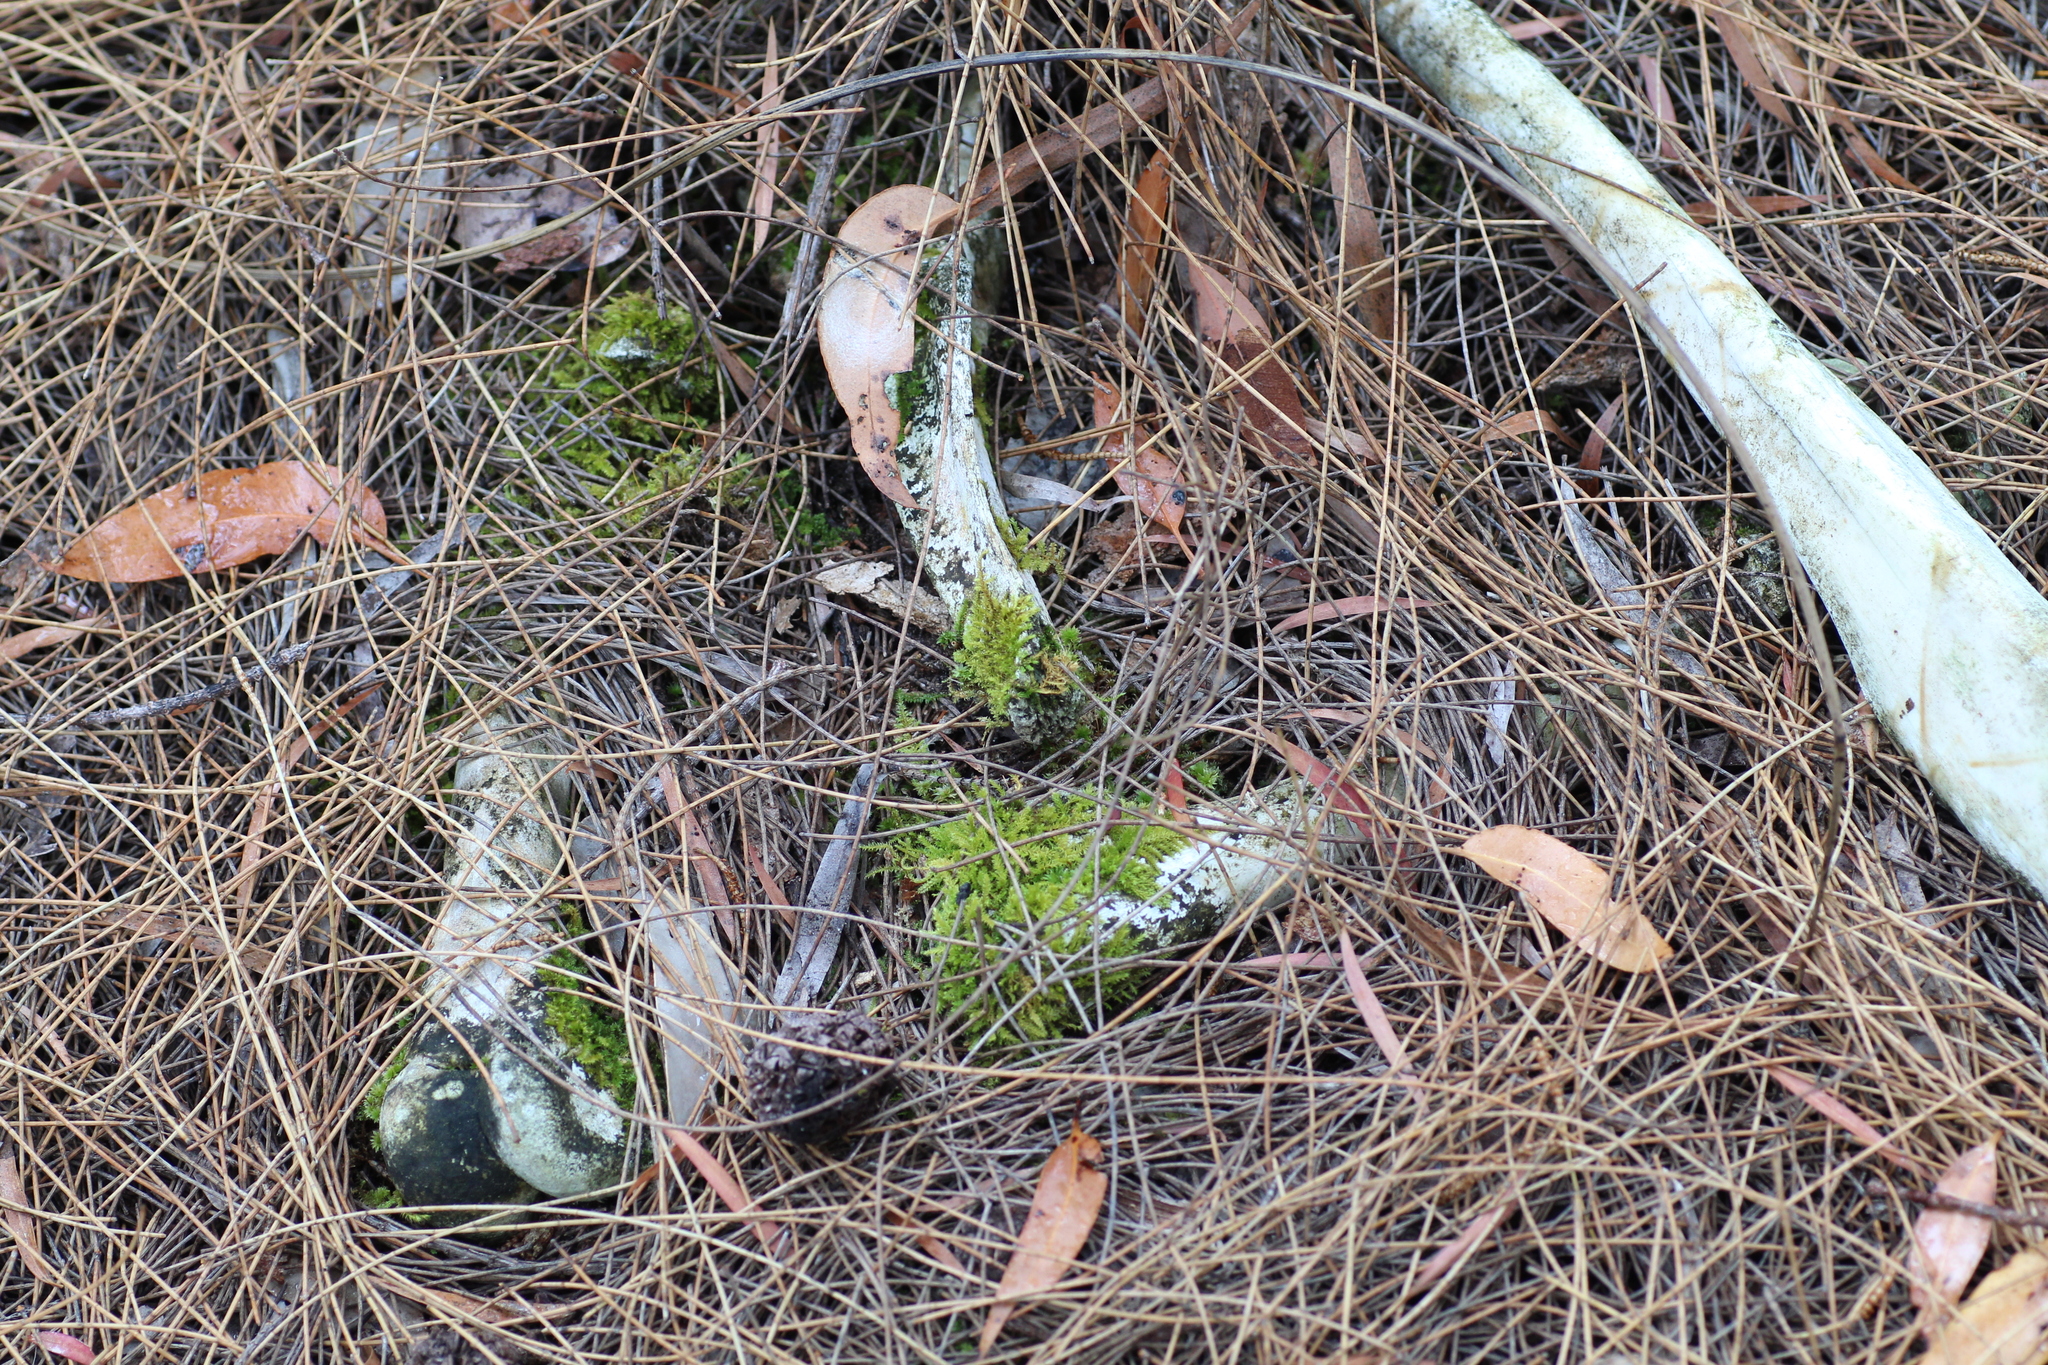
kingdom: Plantae
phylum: Bryophyta
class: Bryopsida
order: Hypnodendrales
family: Racopilaceae
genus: Racopilum
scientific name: Racopilum cuspidigerum
